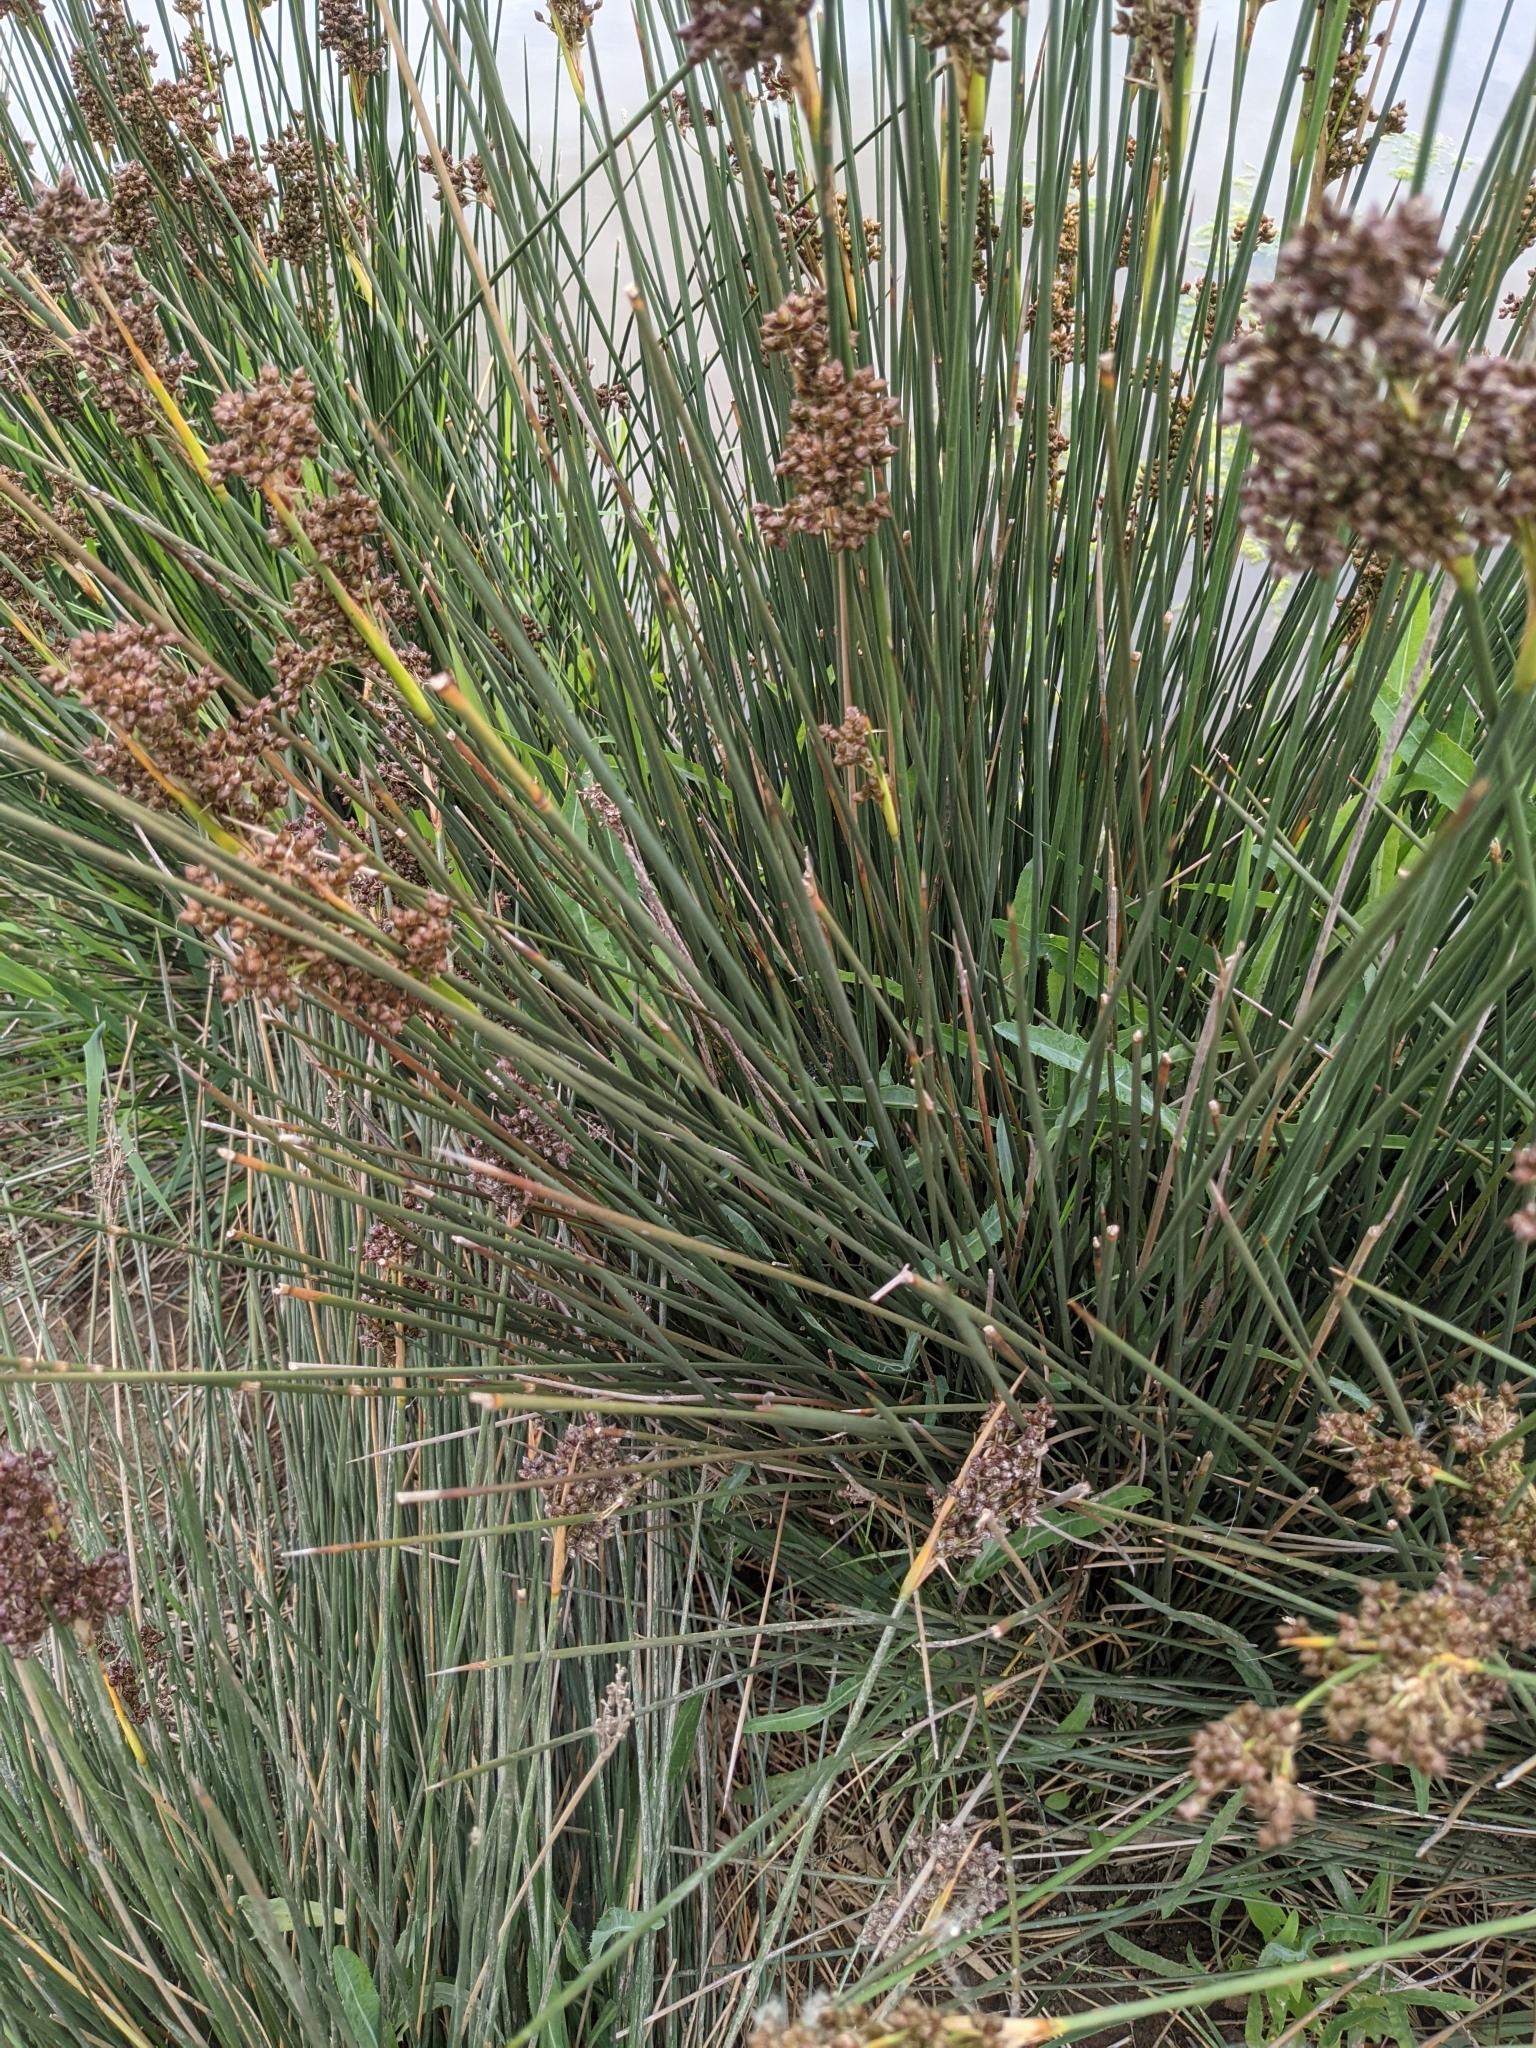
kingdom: Plantae
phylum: Tracheophyta
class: Liliopsida
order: Poales
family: Juncaceae
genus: Juncus
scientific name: Juncus acutus
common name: Sharp rush
